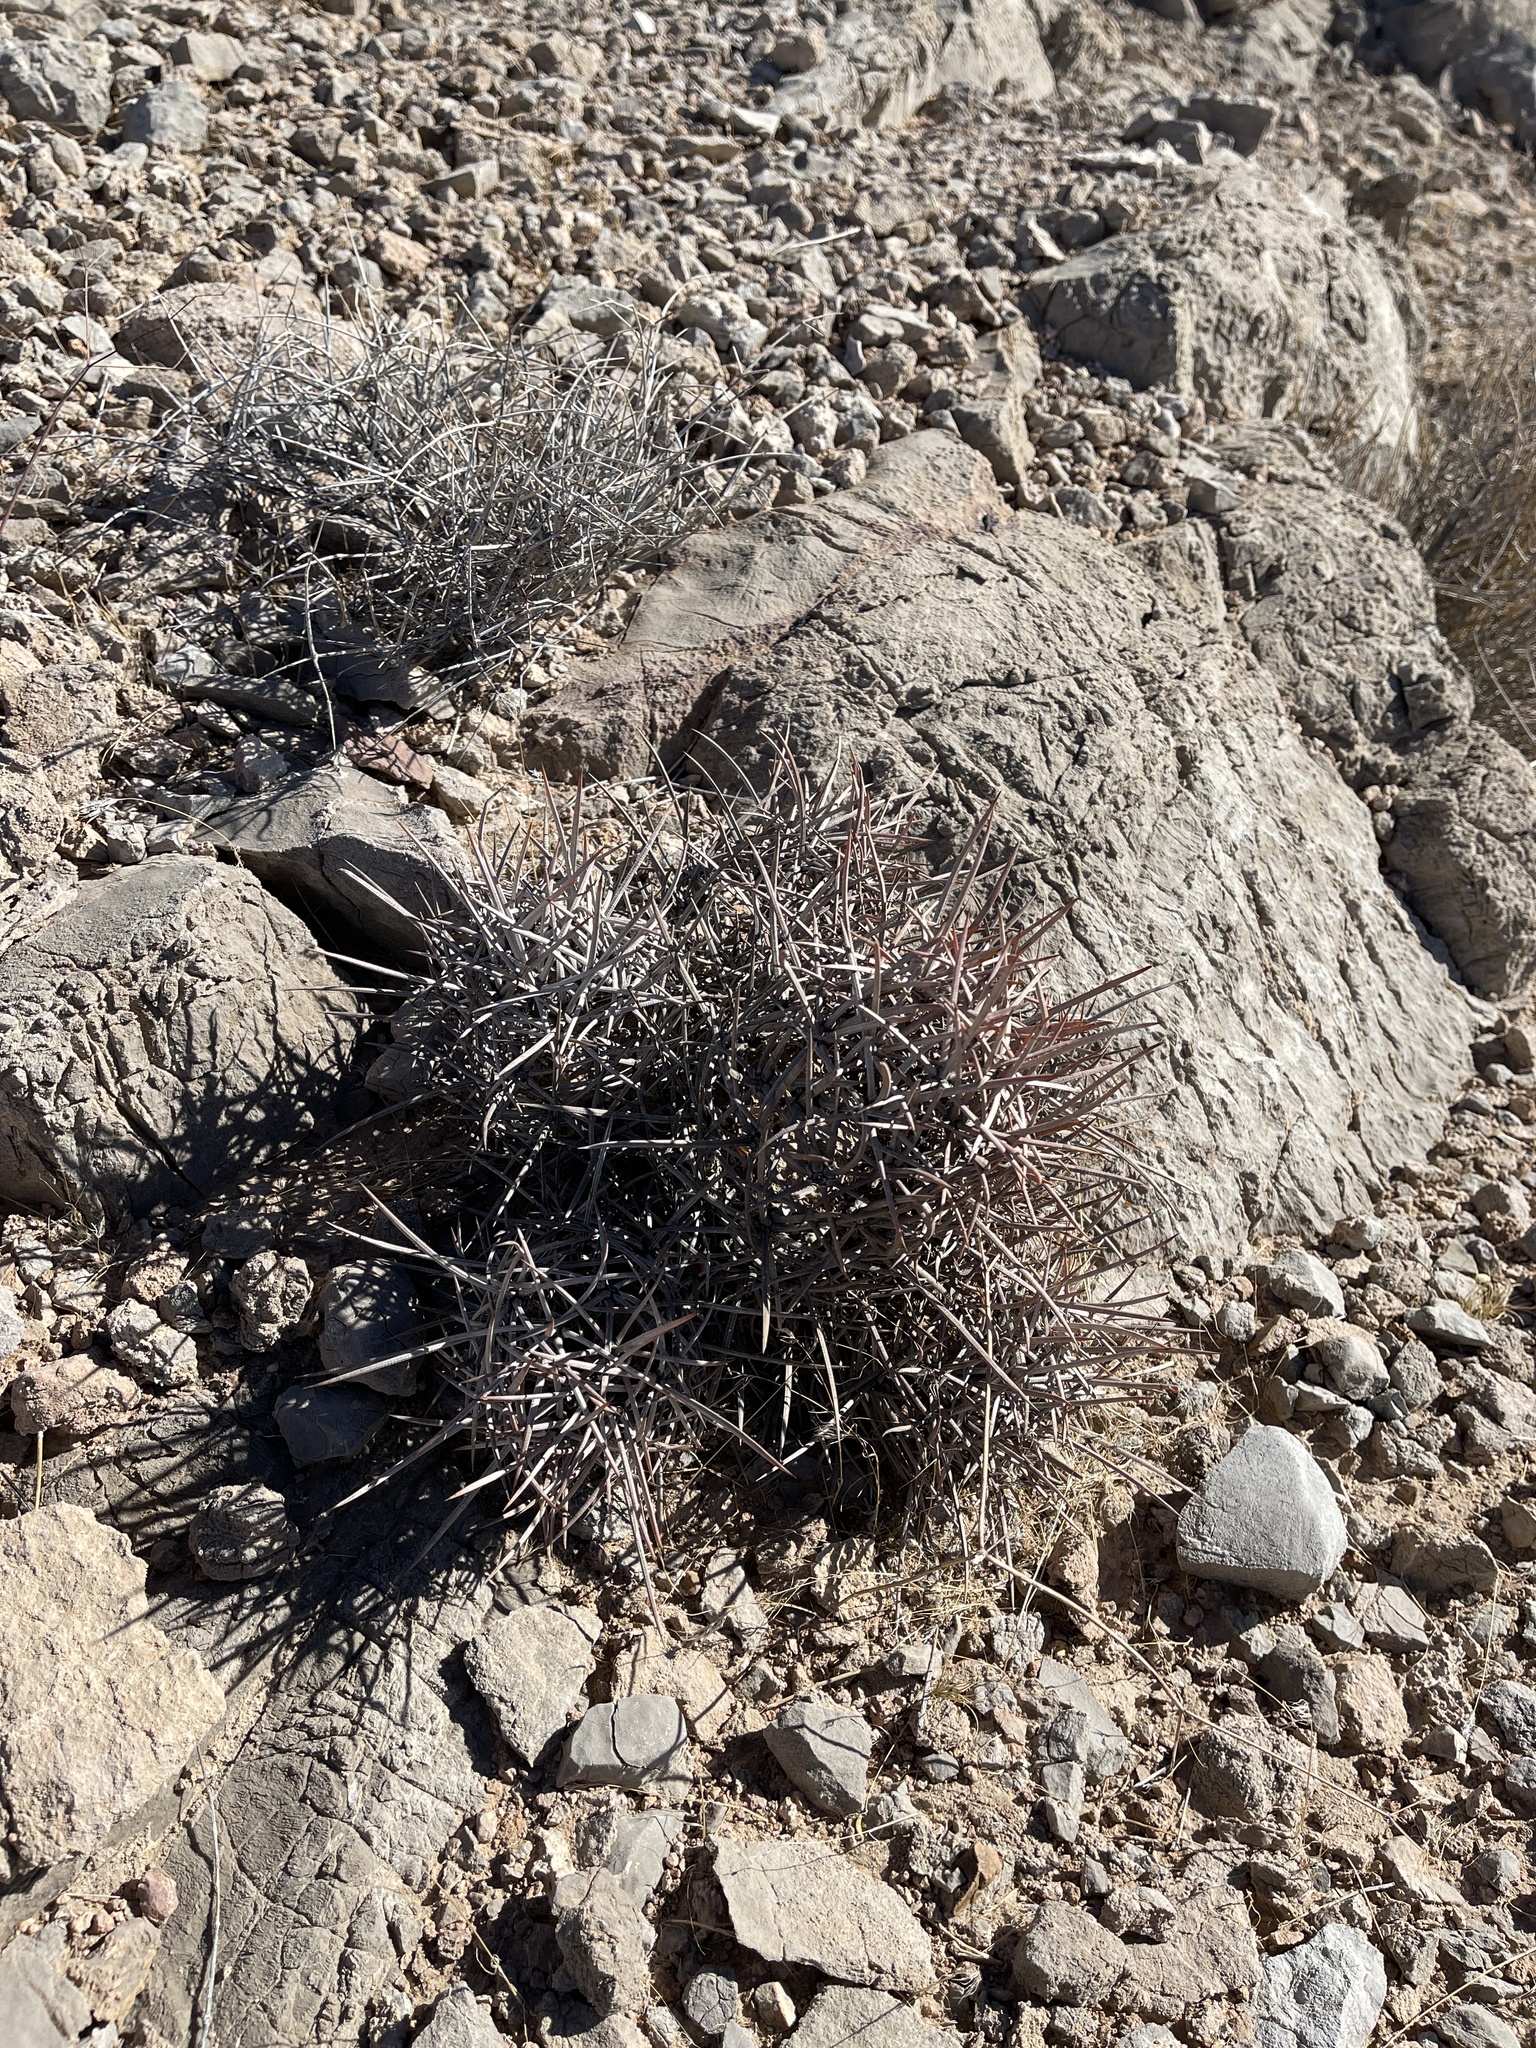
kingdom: Plantae
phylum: Tracheophyta
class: Magnoliopsida
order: Caryophyllales
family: Cactaceae
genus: Echinocactus
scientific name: Echinocactus polycephalus
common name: Cottontop cactus
